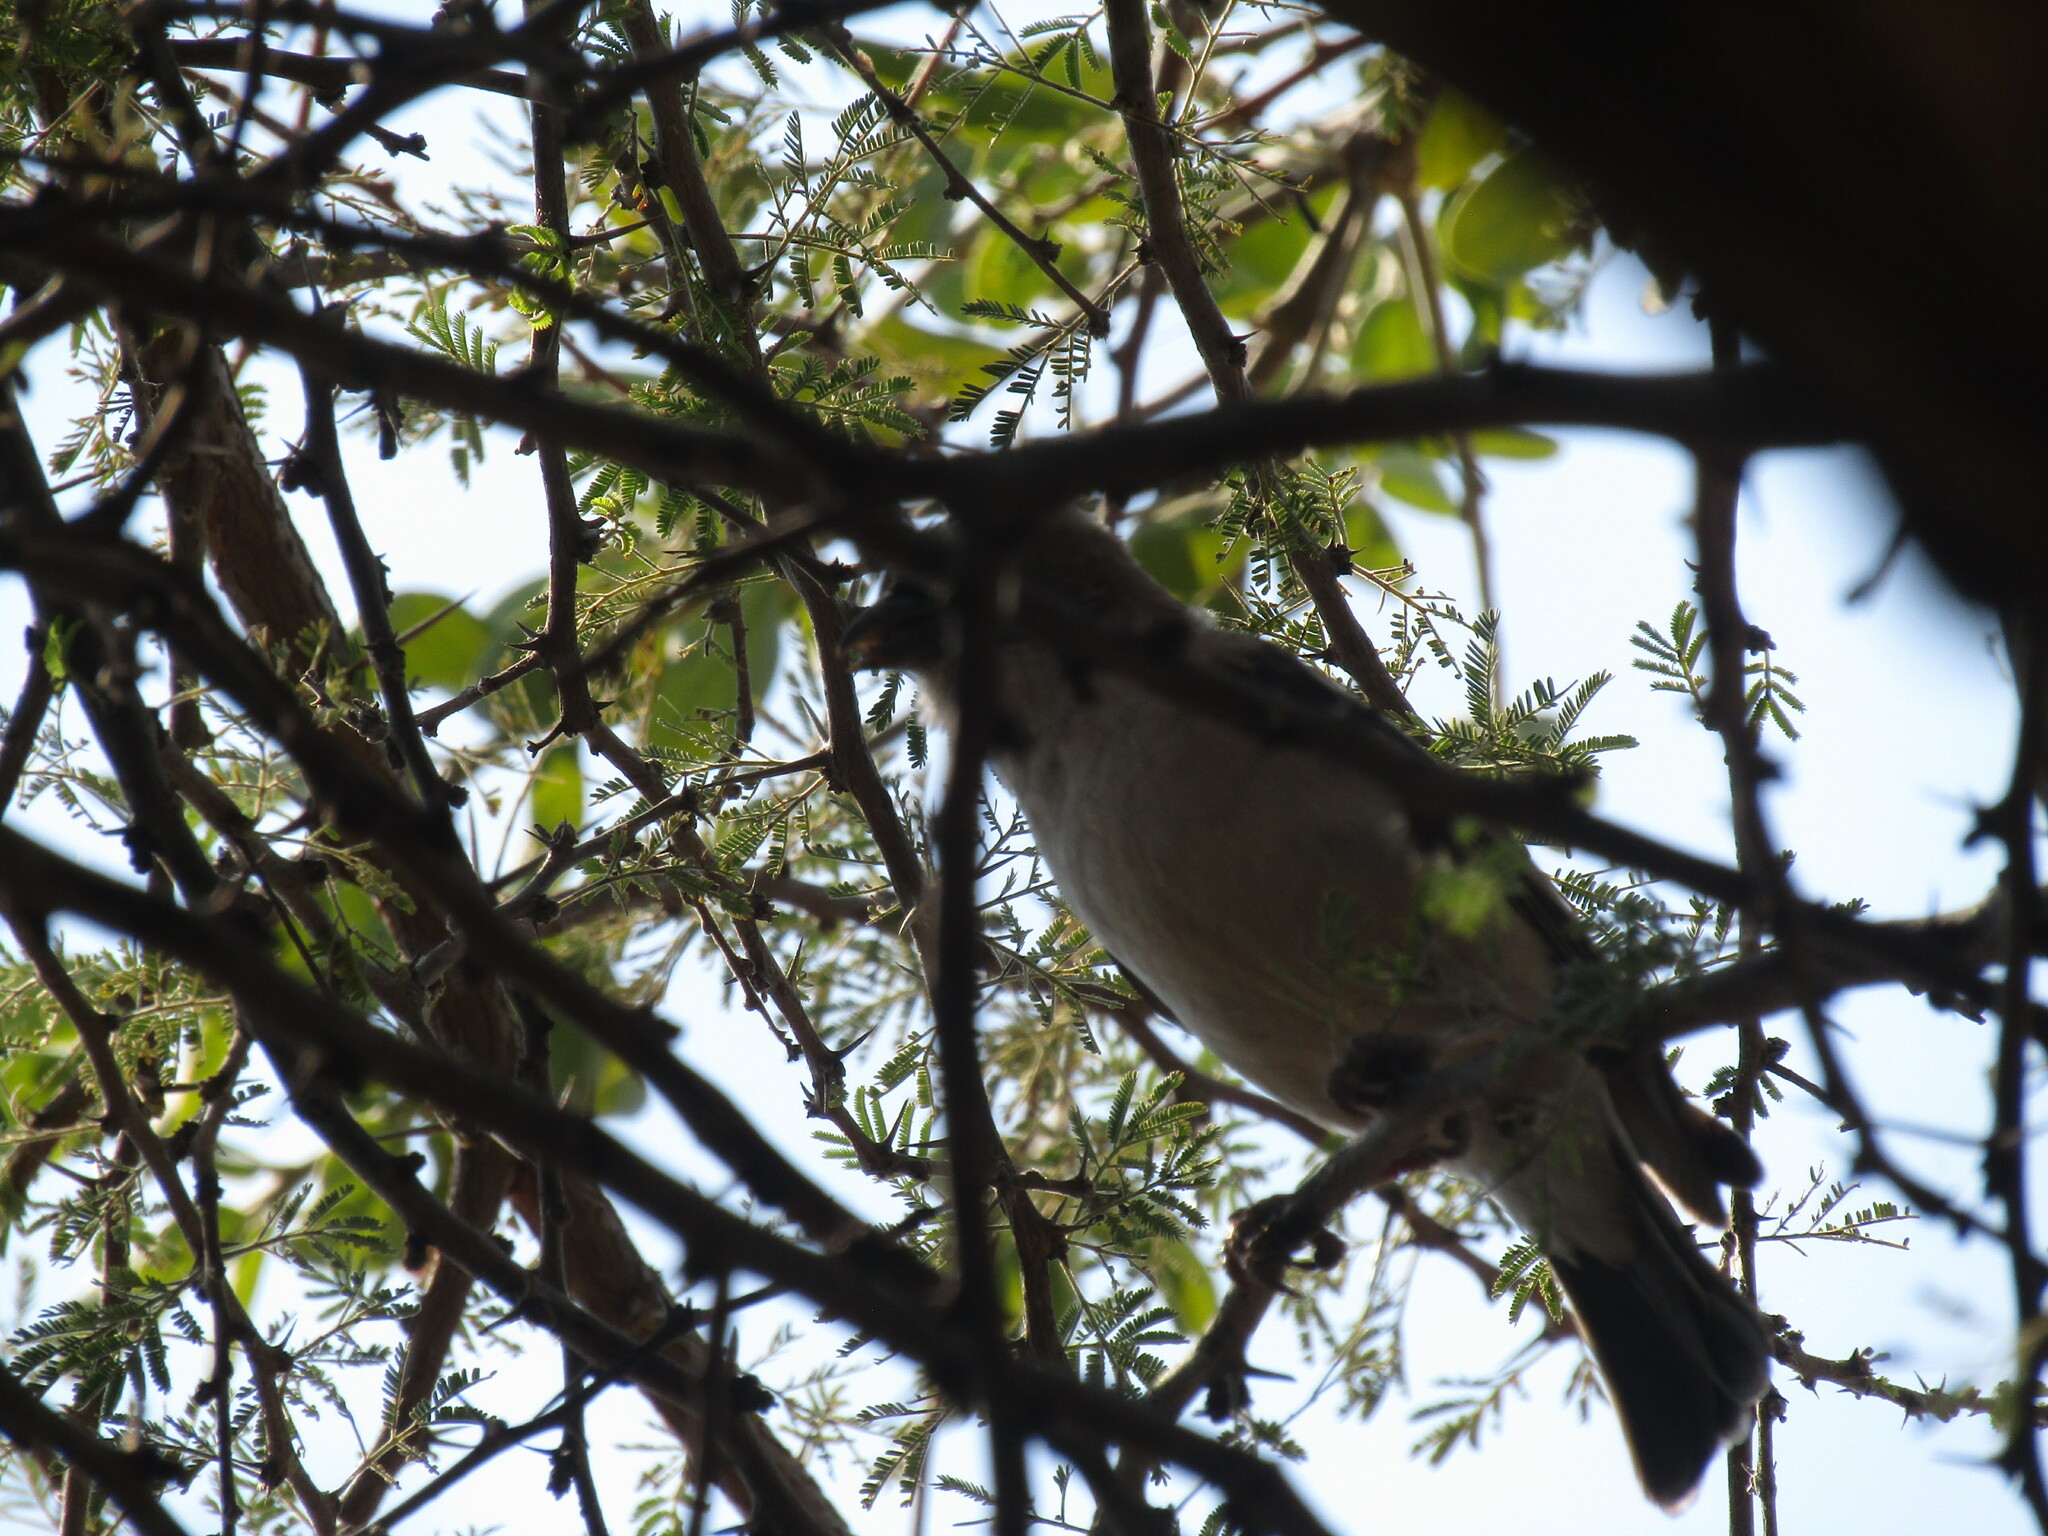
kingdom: Animalia
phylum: Chordata
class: Aves
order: Passeriformes
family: Passeridae
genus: Plocepasser
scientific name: Plocepasser mahali
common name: White-browed sparrow-weaver
